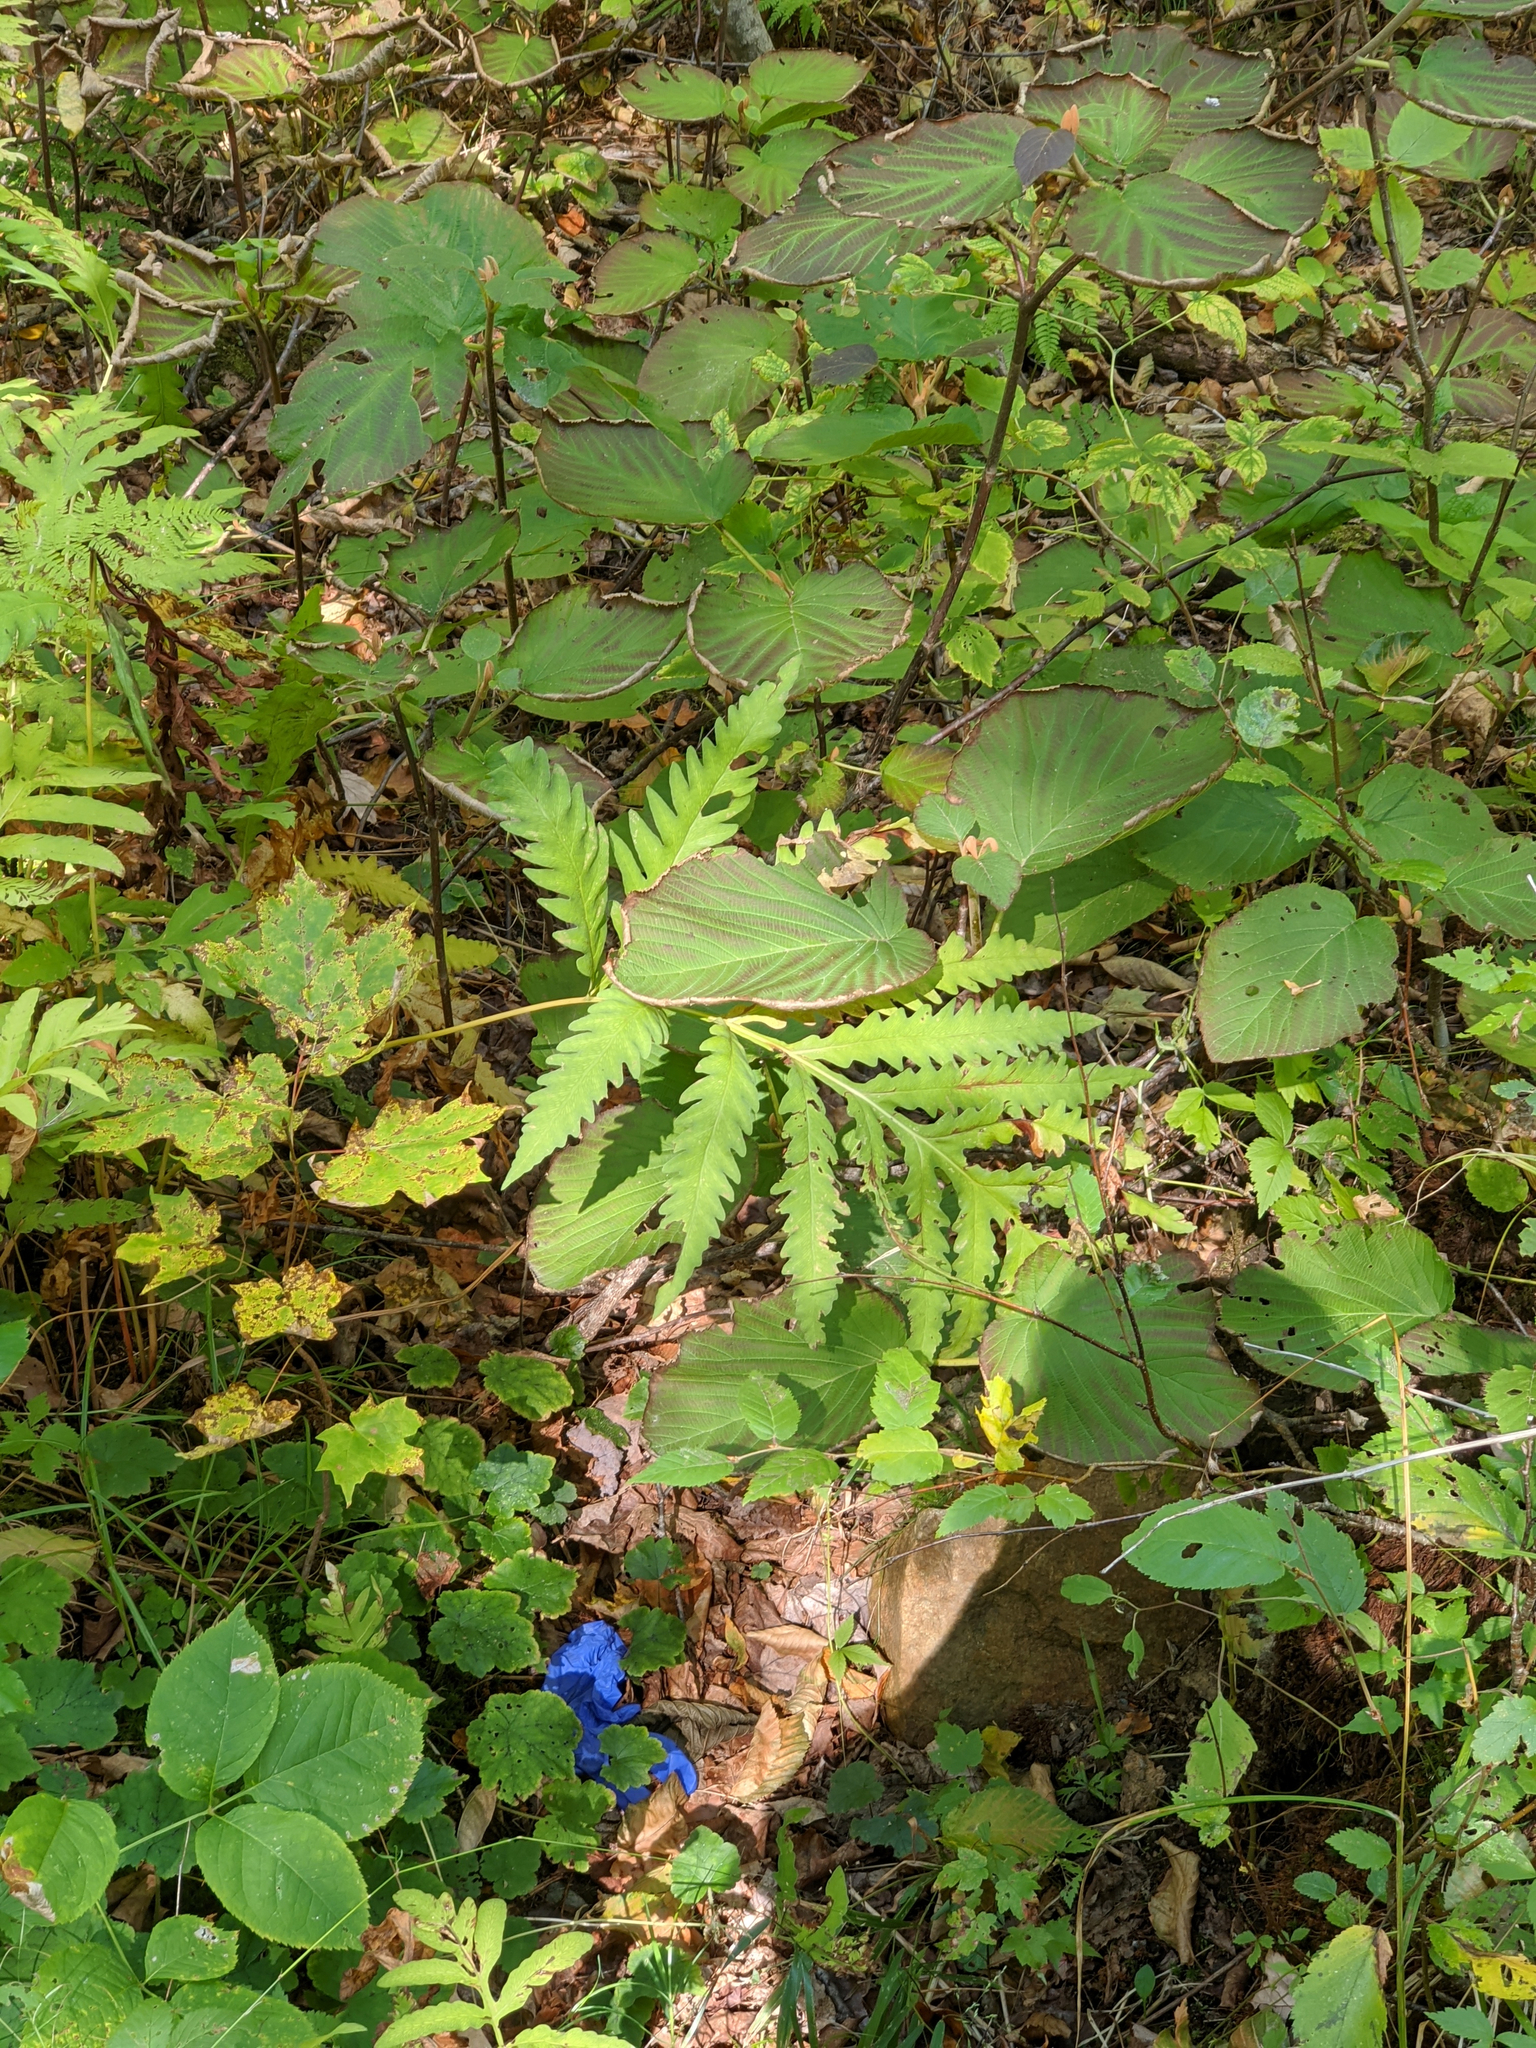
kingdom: Plantae
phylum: Tracheophyta
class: Polypodiopsida
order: Polypodiales
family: Onocleaceae
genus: Onoclea
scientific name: Onoclea sensibilis
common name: Sensitive fern
